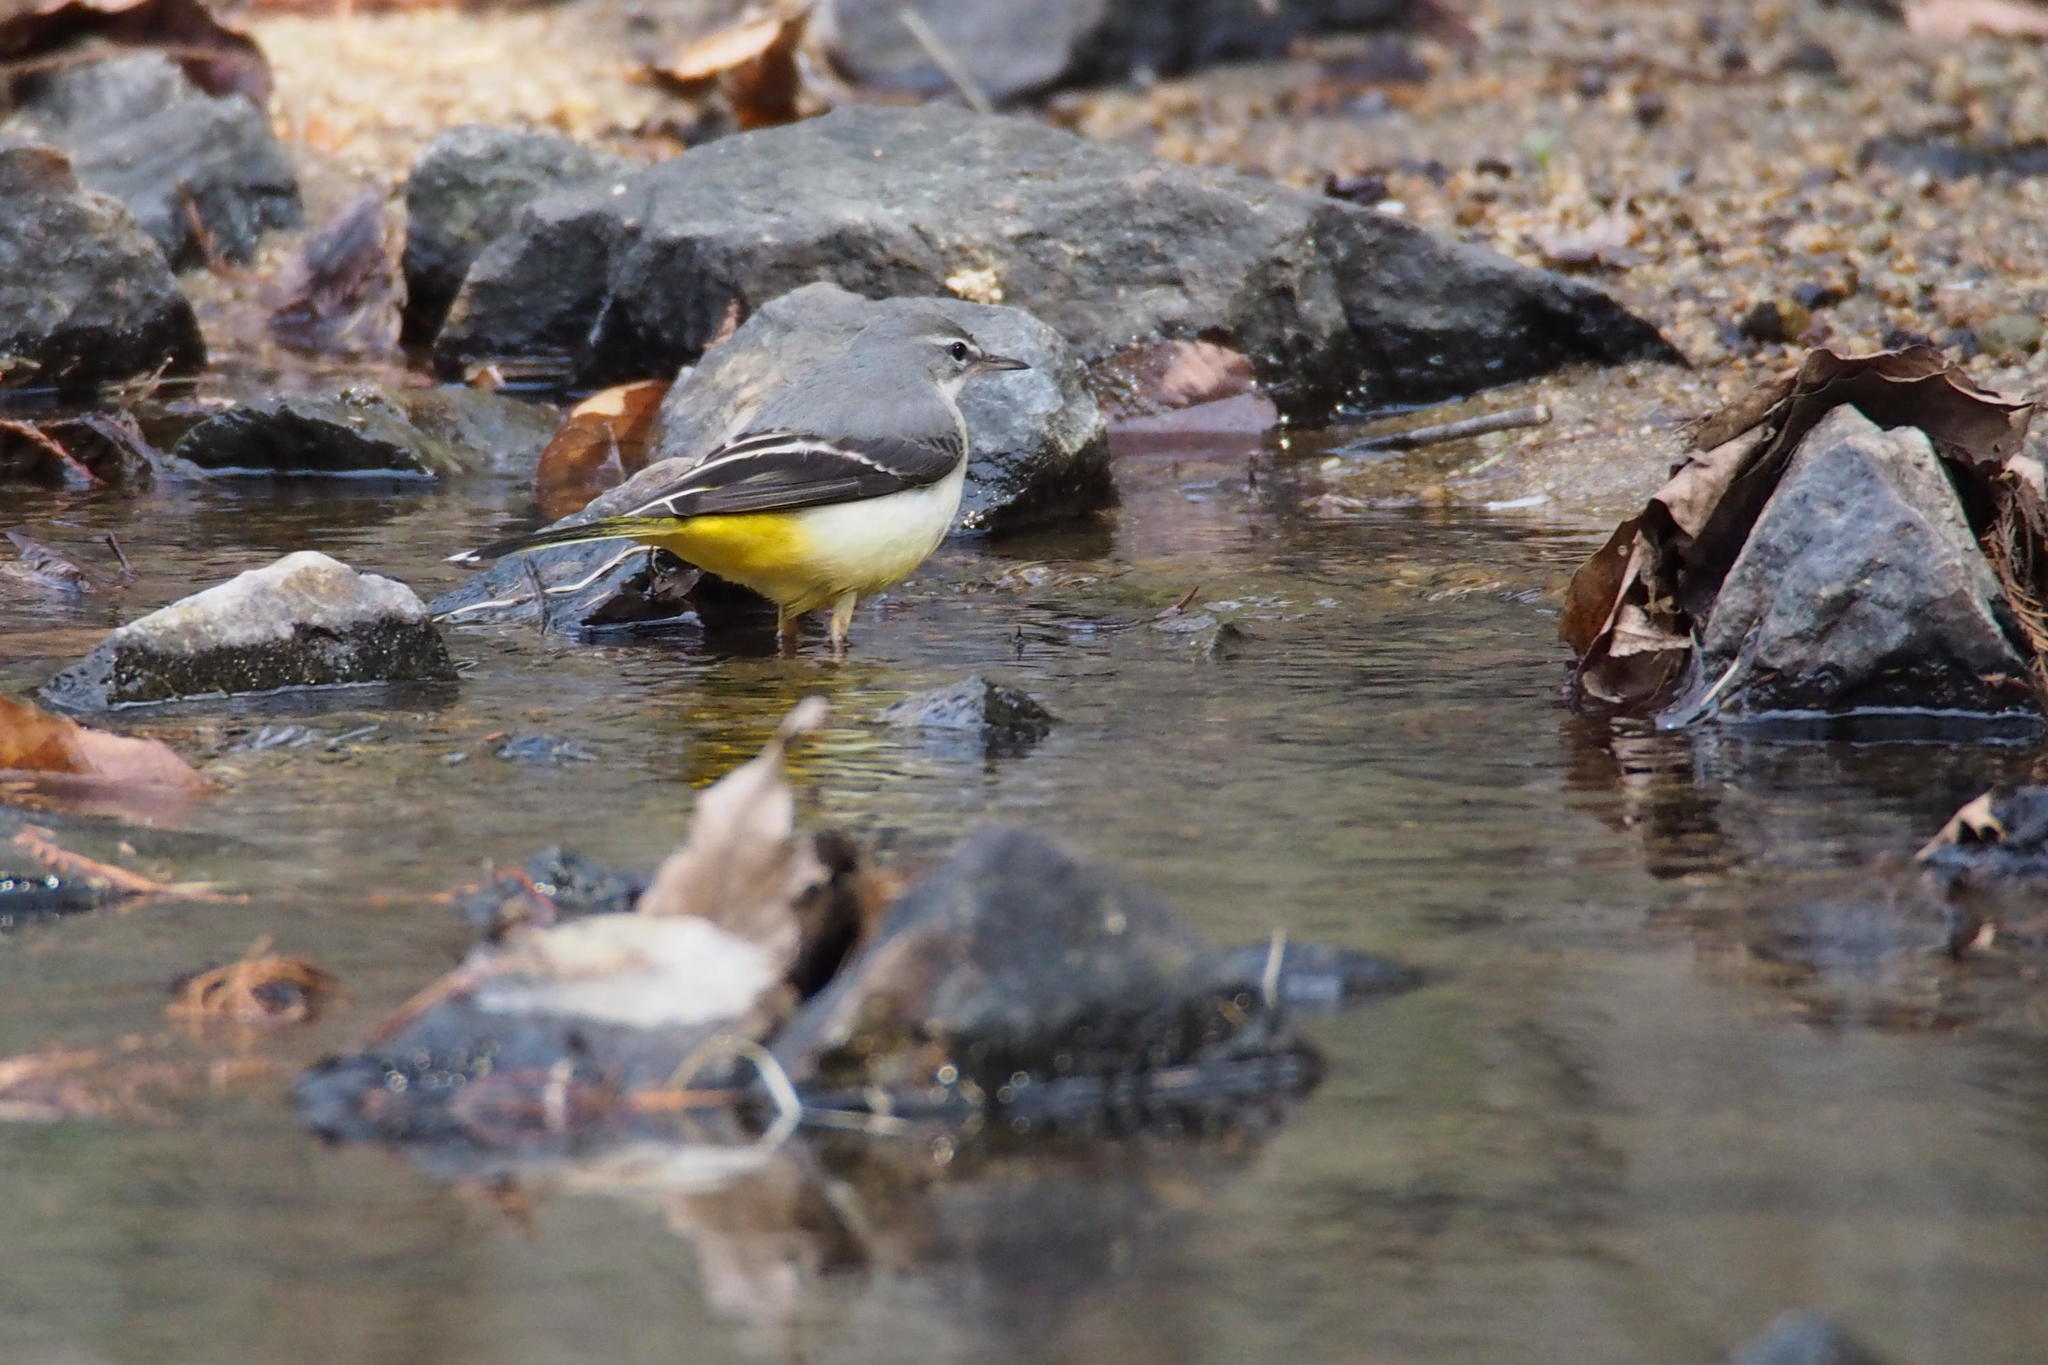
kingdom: Animalia
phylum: Chordata
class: Aves
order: Passeriformes
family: Motacillidae
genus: Motacilla
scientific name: Motacilla cinerea
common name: Grey wagtail
